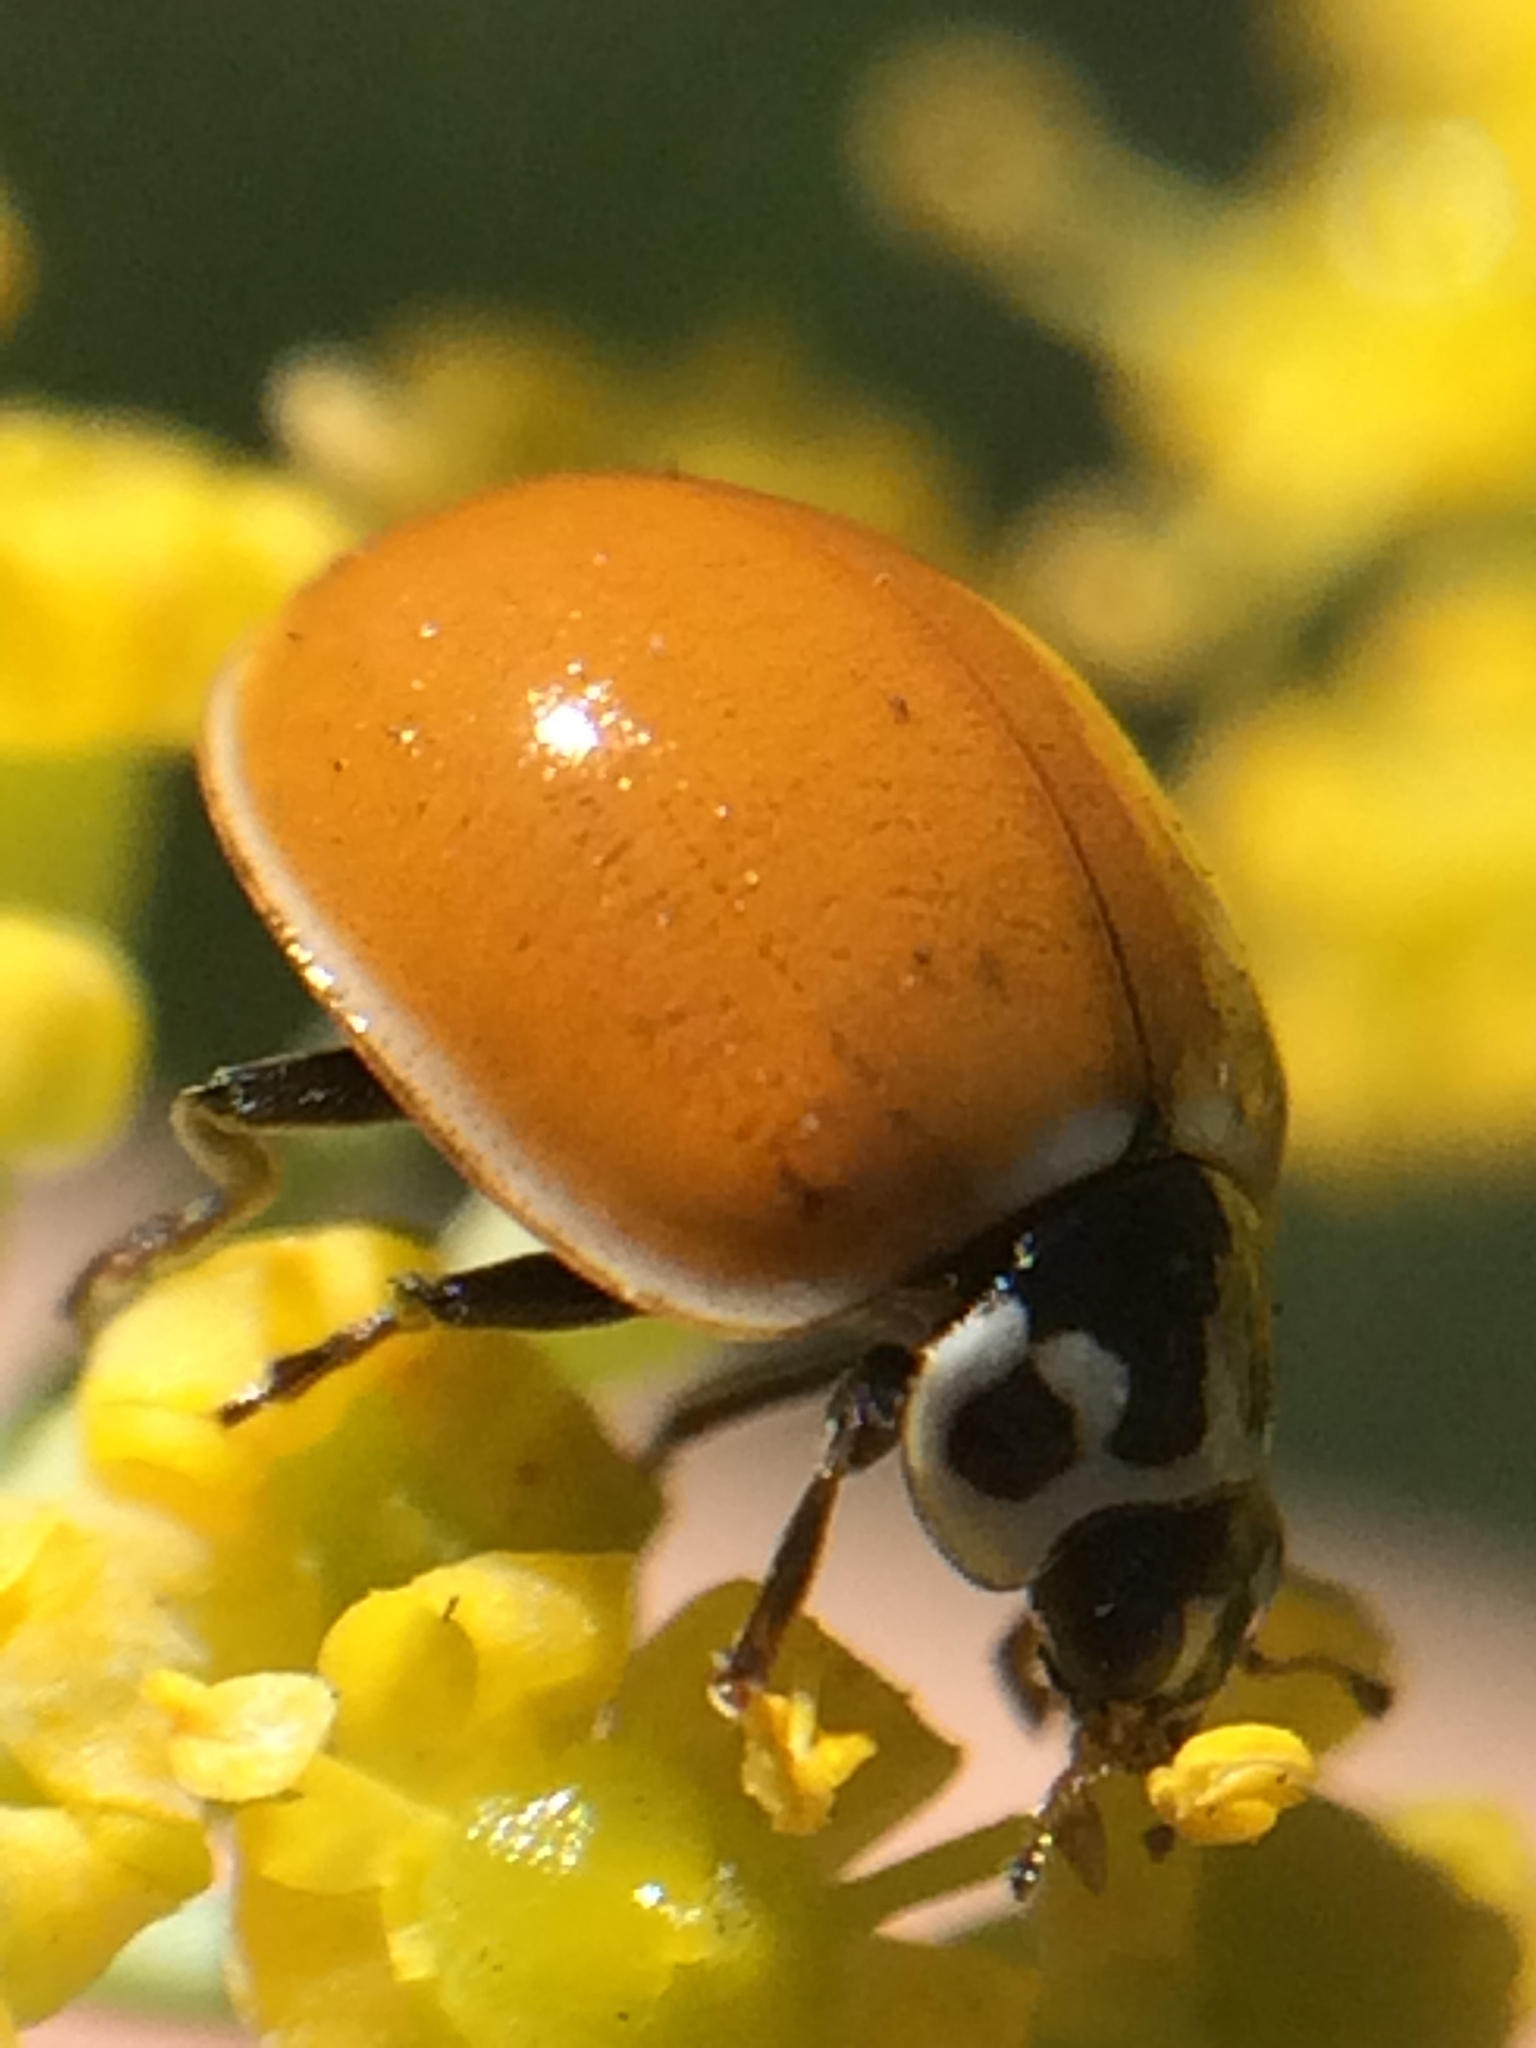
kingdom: Animalia
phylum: Arthropoda
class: Insecta
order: Coleoptera
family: Coccinellidae
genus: Cycloneda
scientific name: Cycloneda polita
